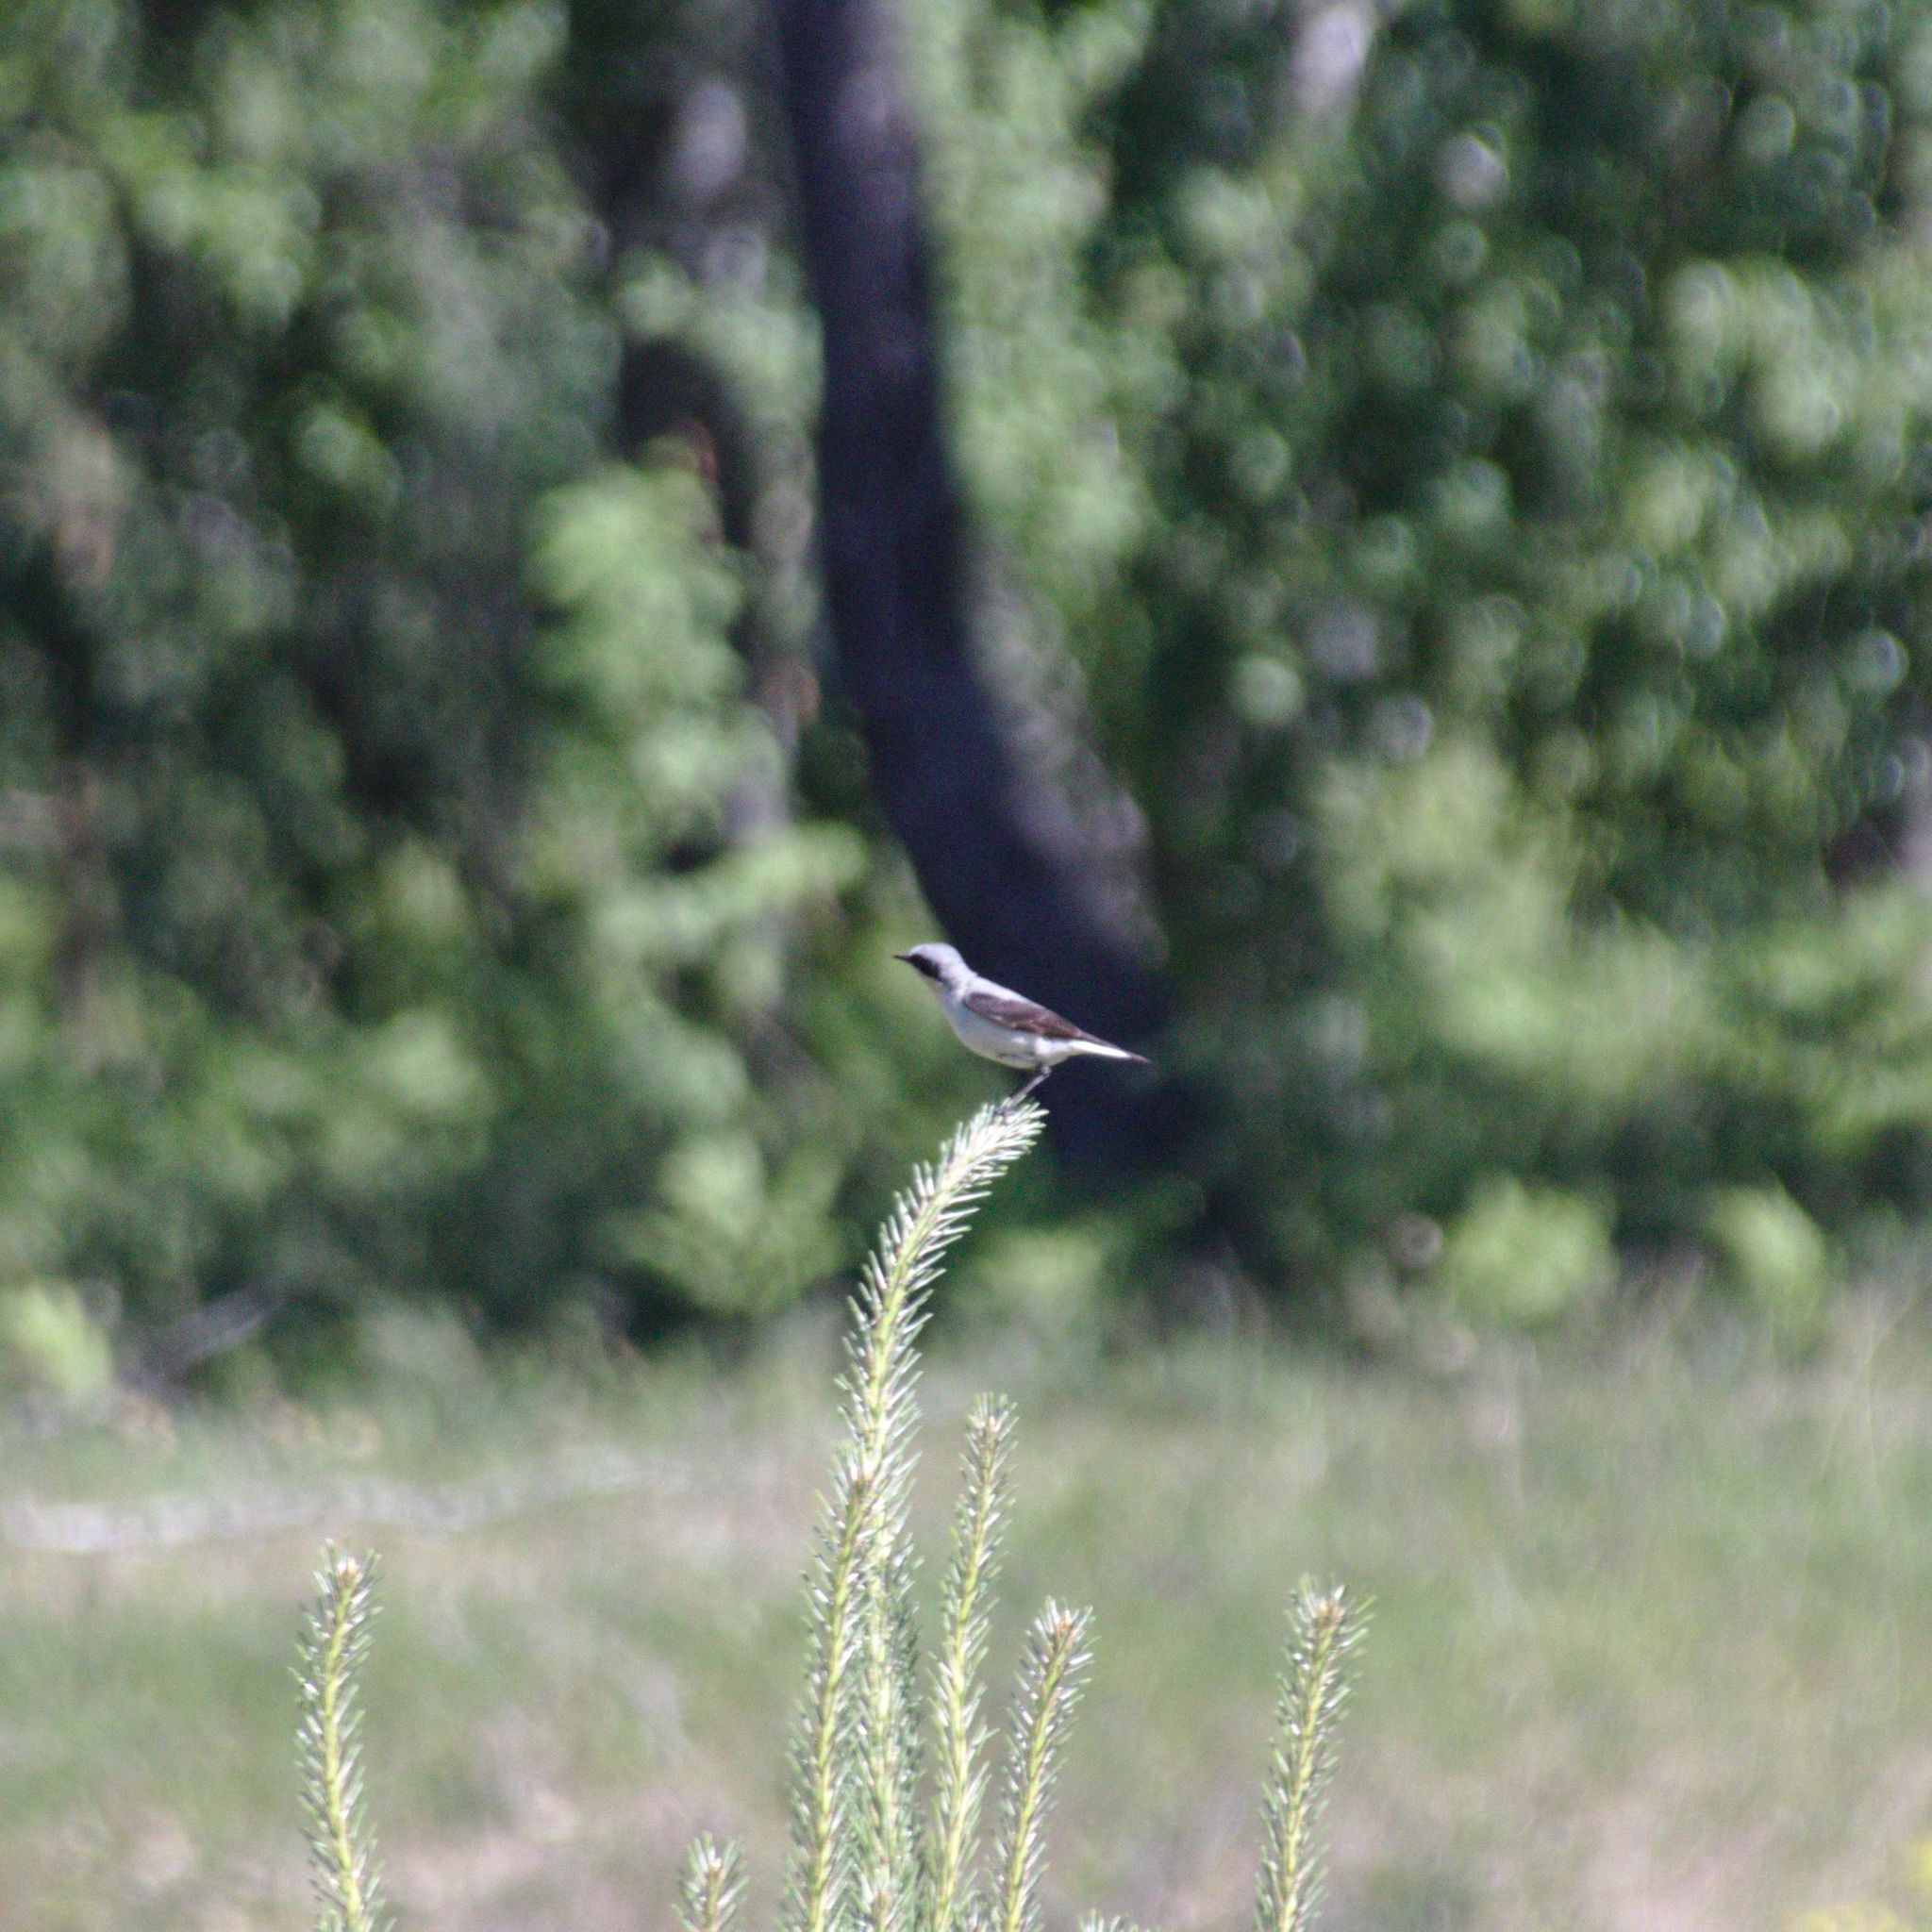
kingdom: Animalia
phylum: Chordata
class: Aves
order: Passeriformes
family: Muscicapidae
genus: Oenanthe
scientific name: Oenanthe oenanthe
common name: Northern wheatear
